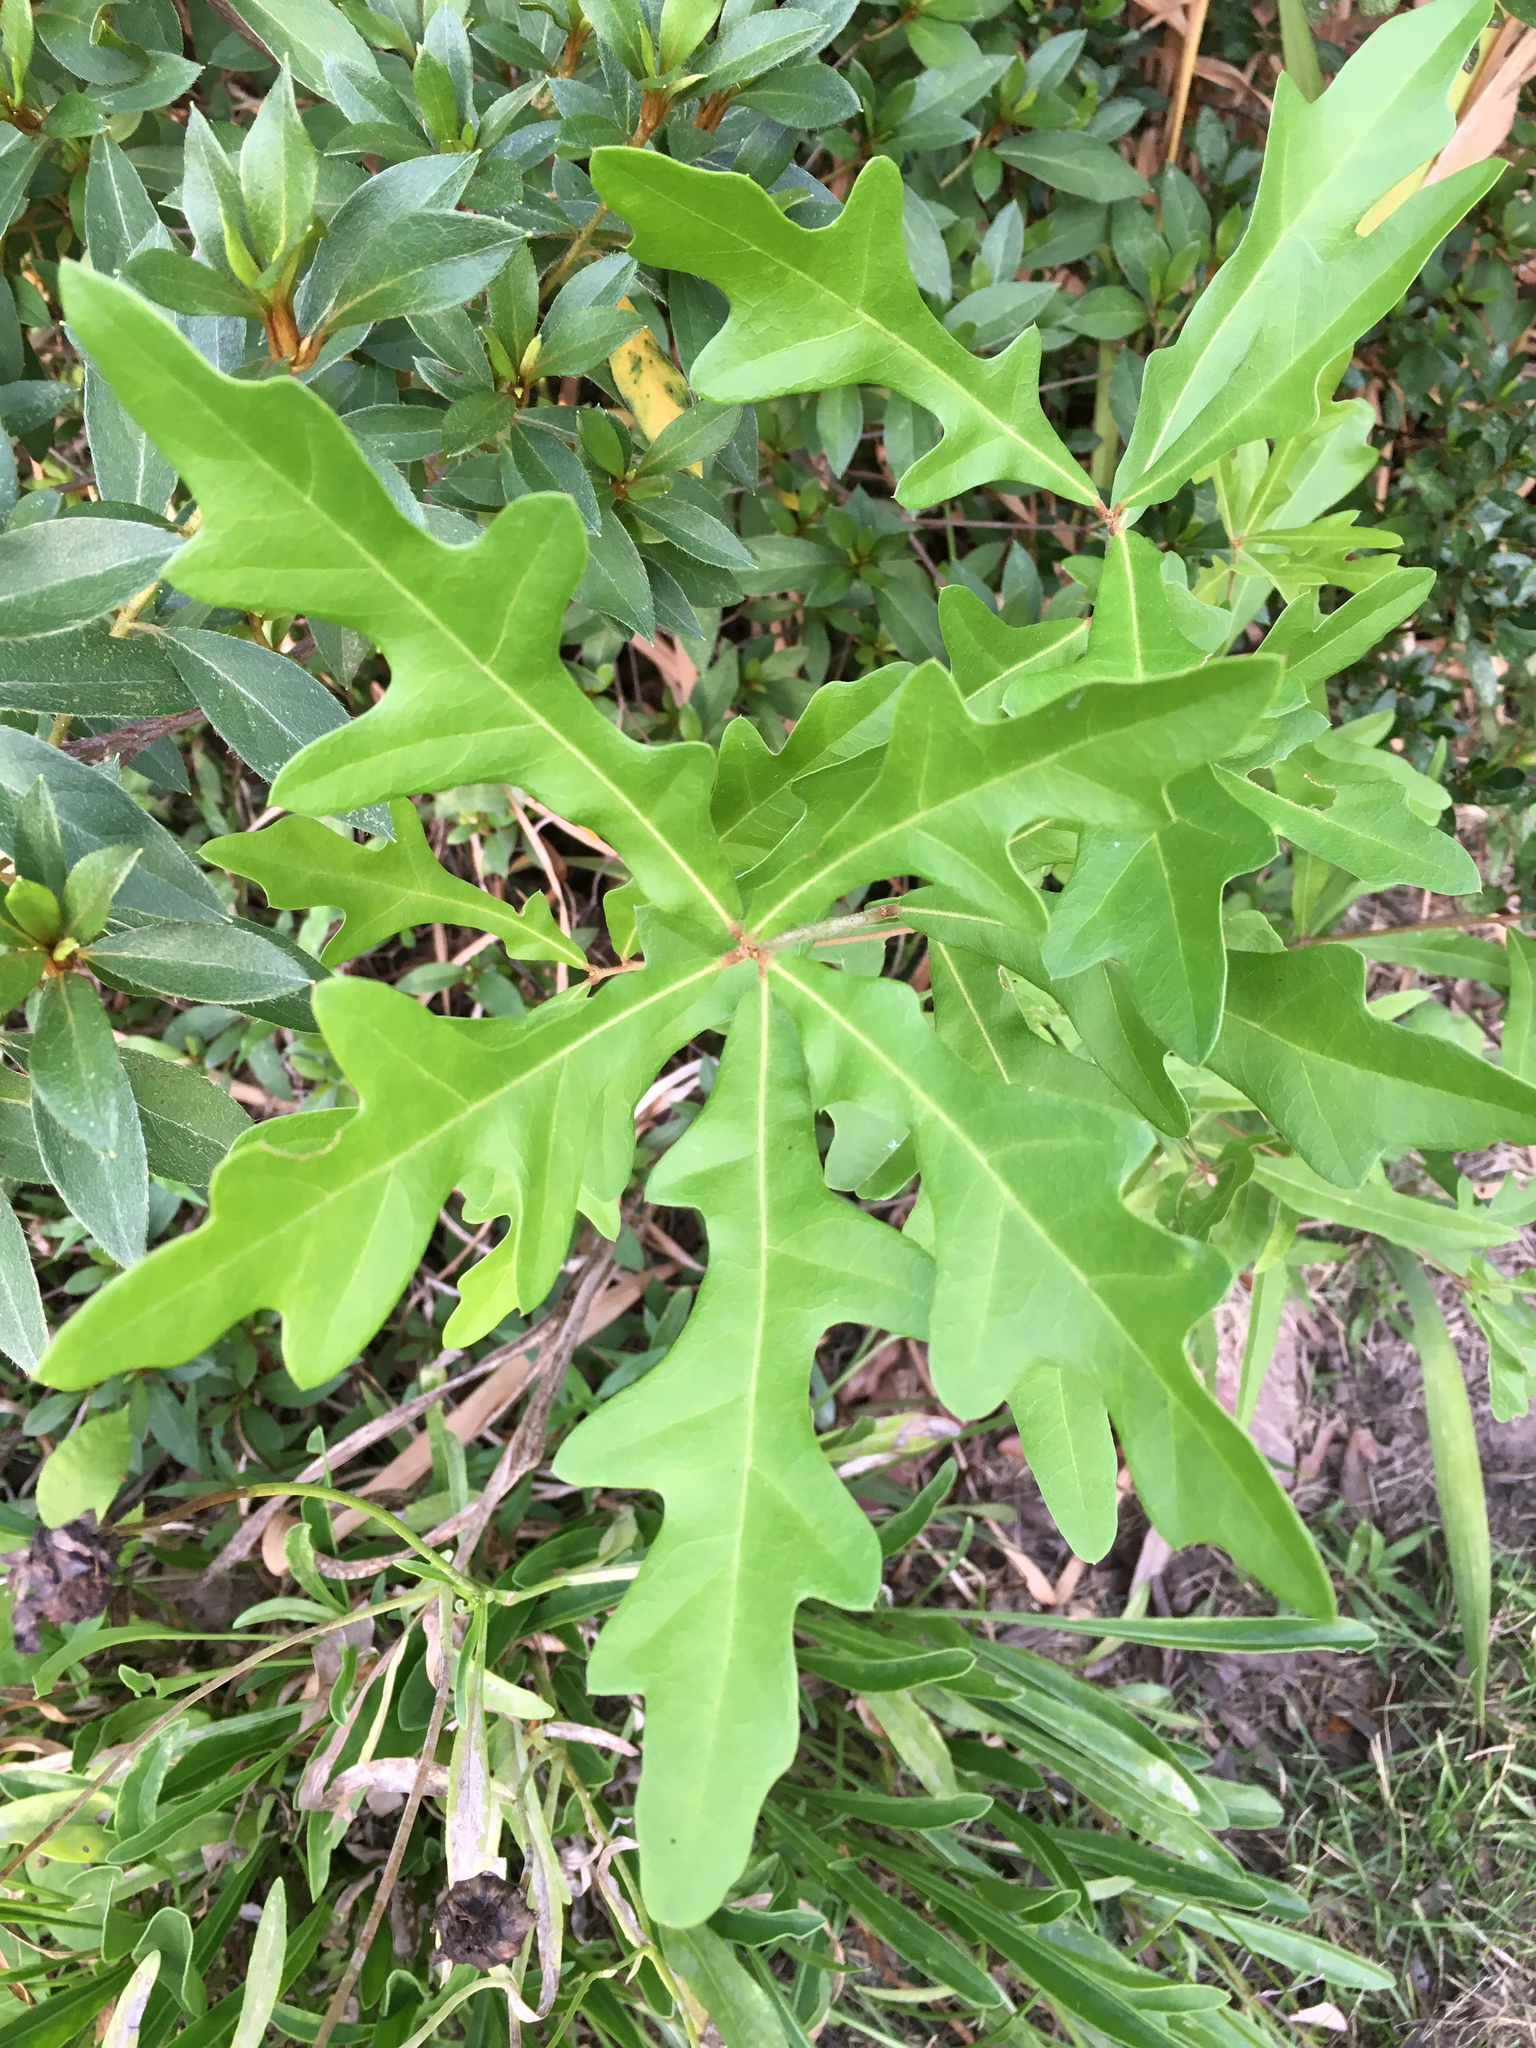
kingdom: Plantae
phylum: Tracheophyta
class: Magnoliopsida
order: Fagales
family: Fagaceae
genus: Quercus
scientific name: Quercus nigra
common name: Water oak
